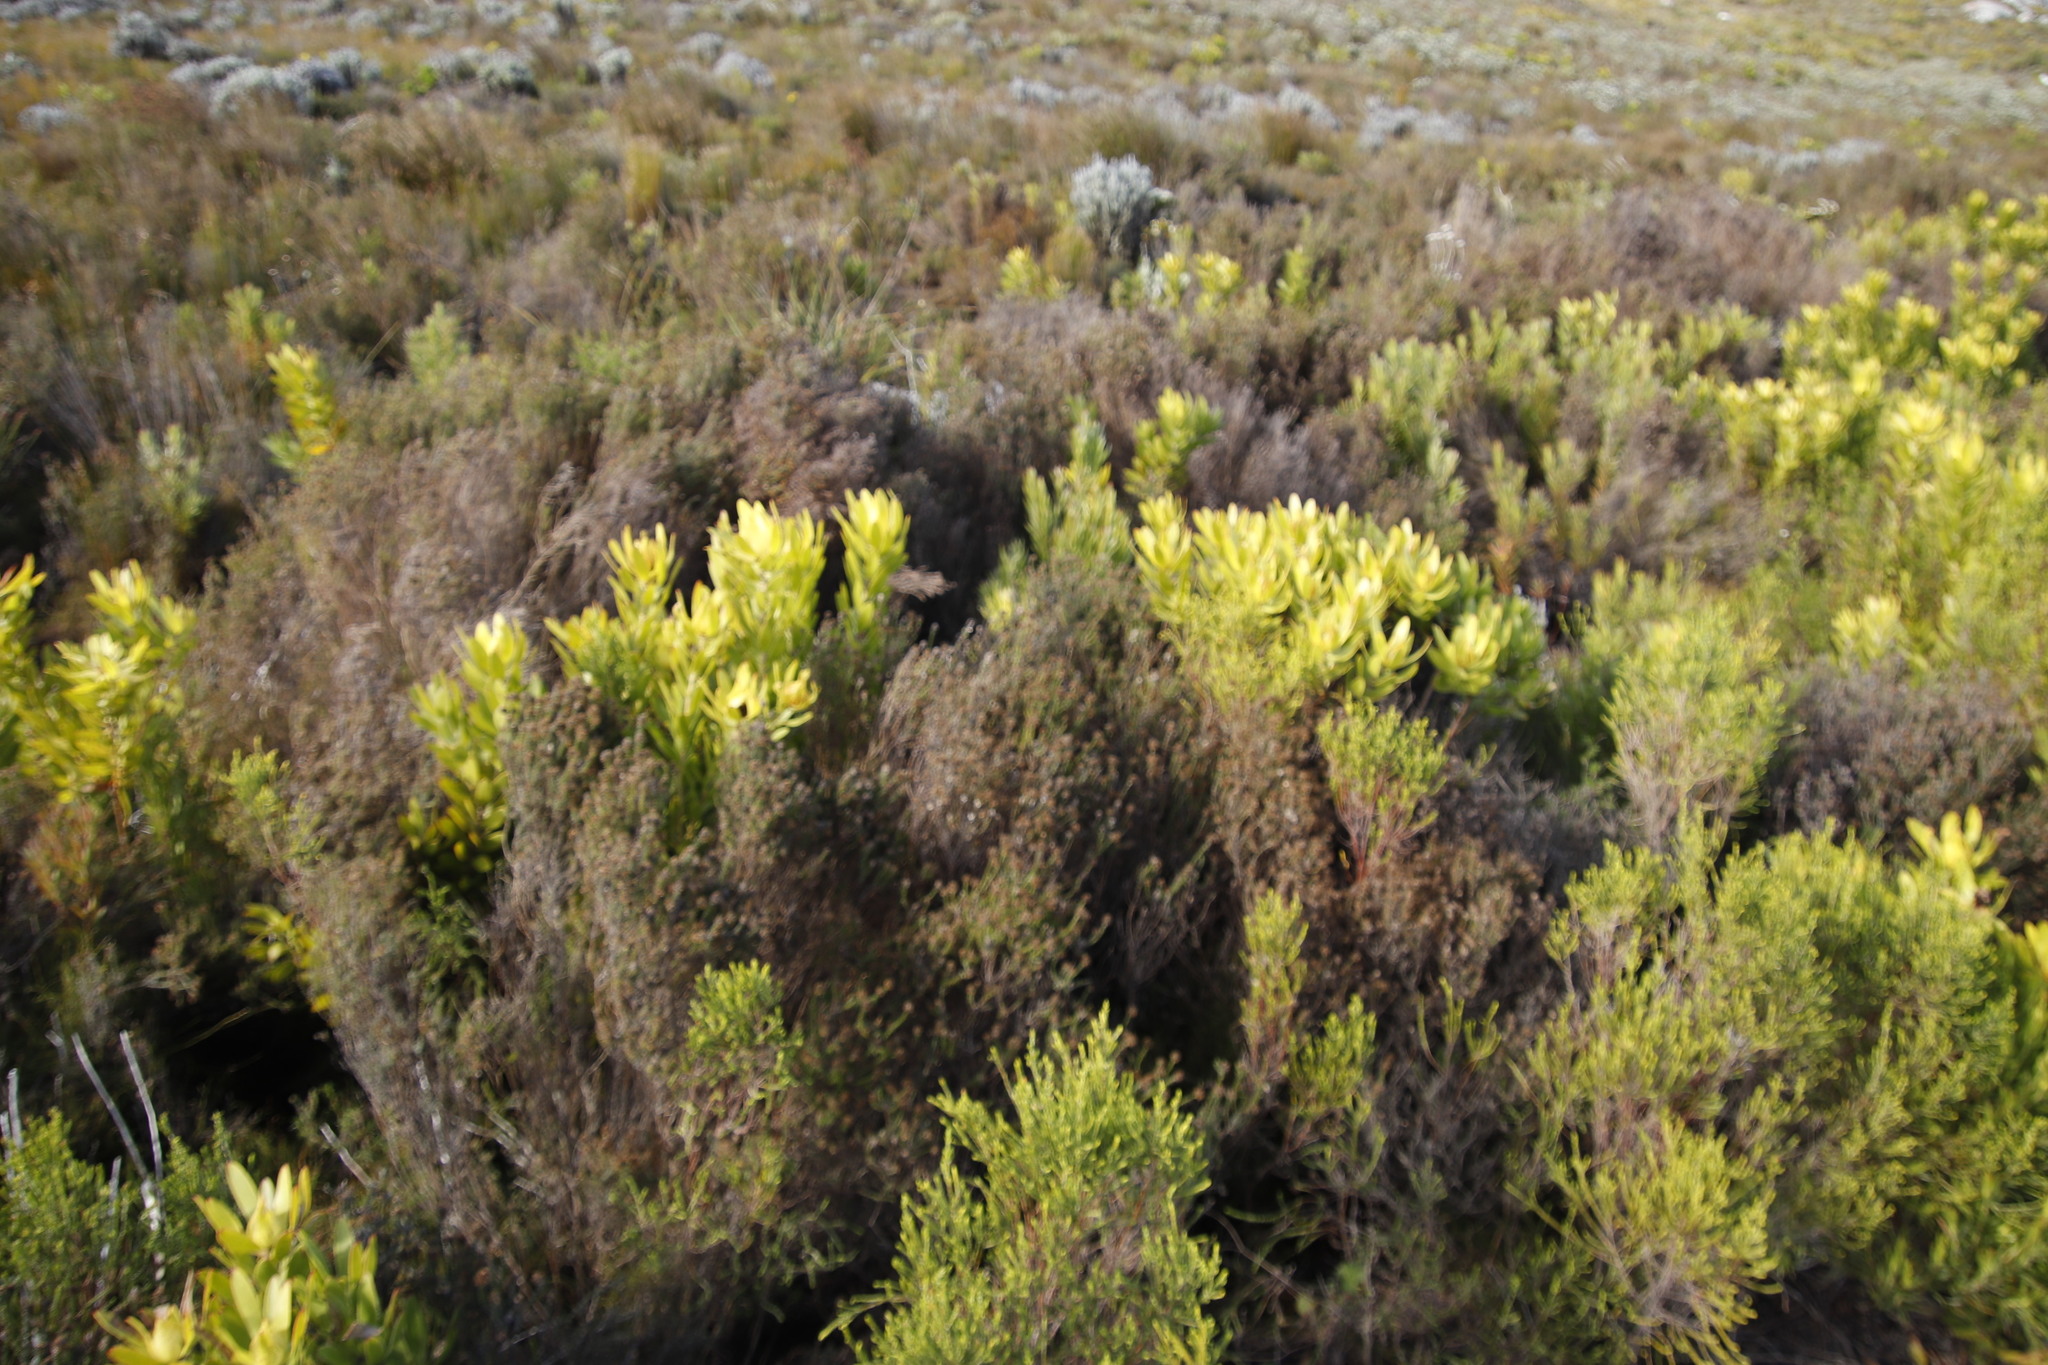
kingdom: Plantae
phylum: Tracheophyta
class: Magnoliopsida
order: Asterales
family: Asteraceae
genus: Seriphium
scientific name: Seriphium incanum
